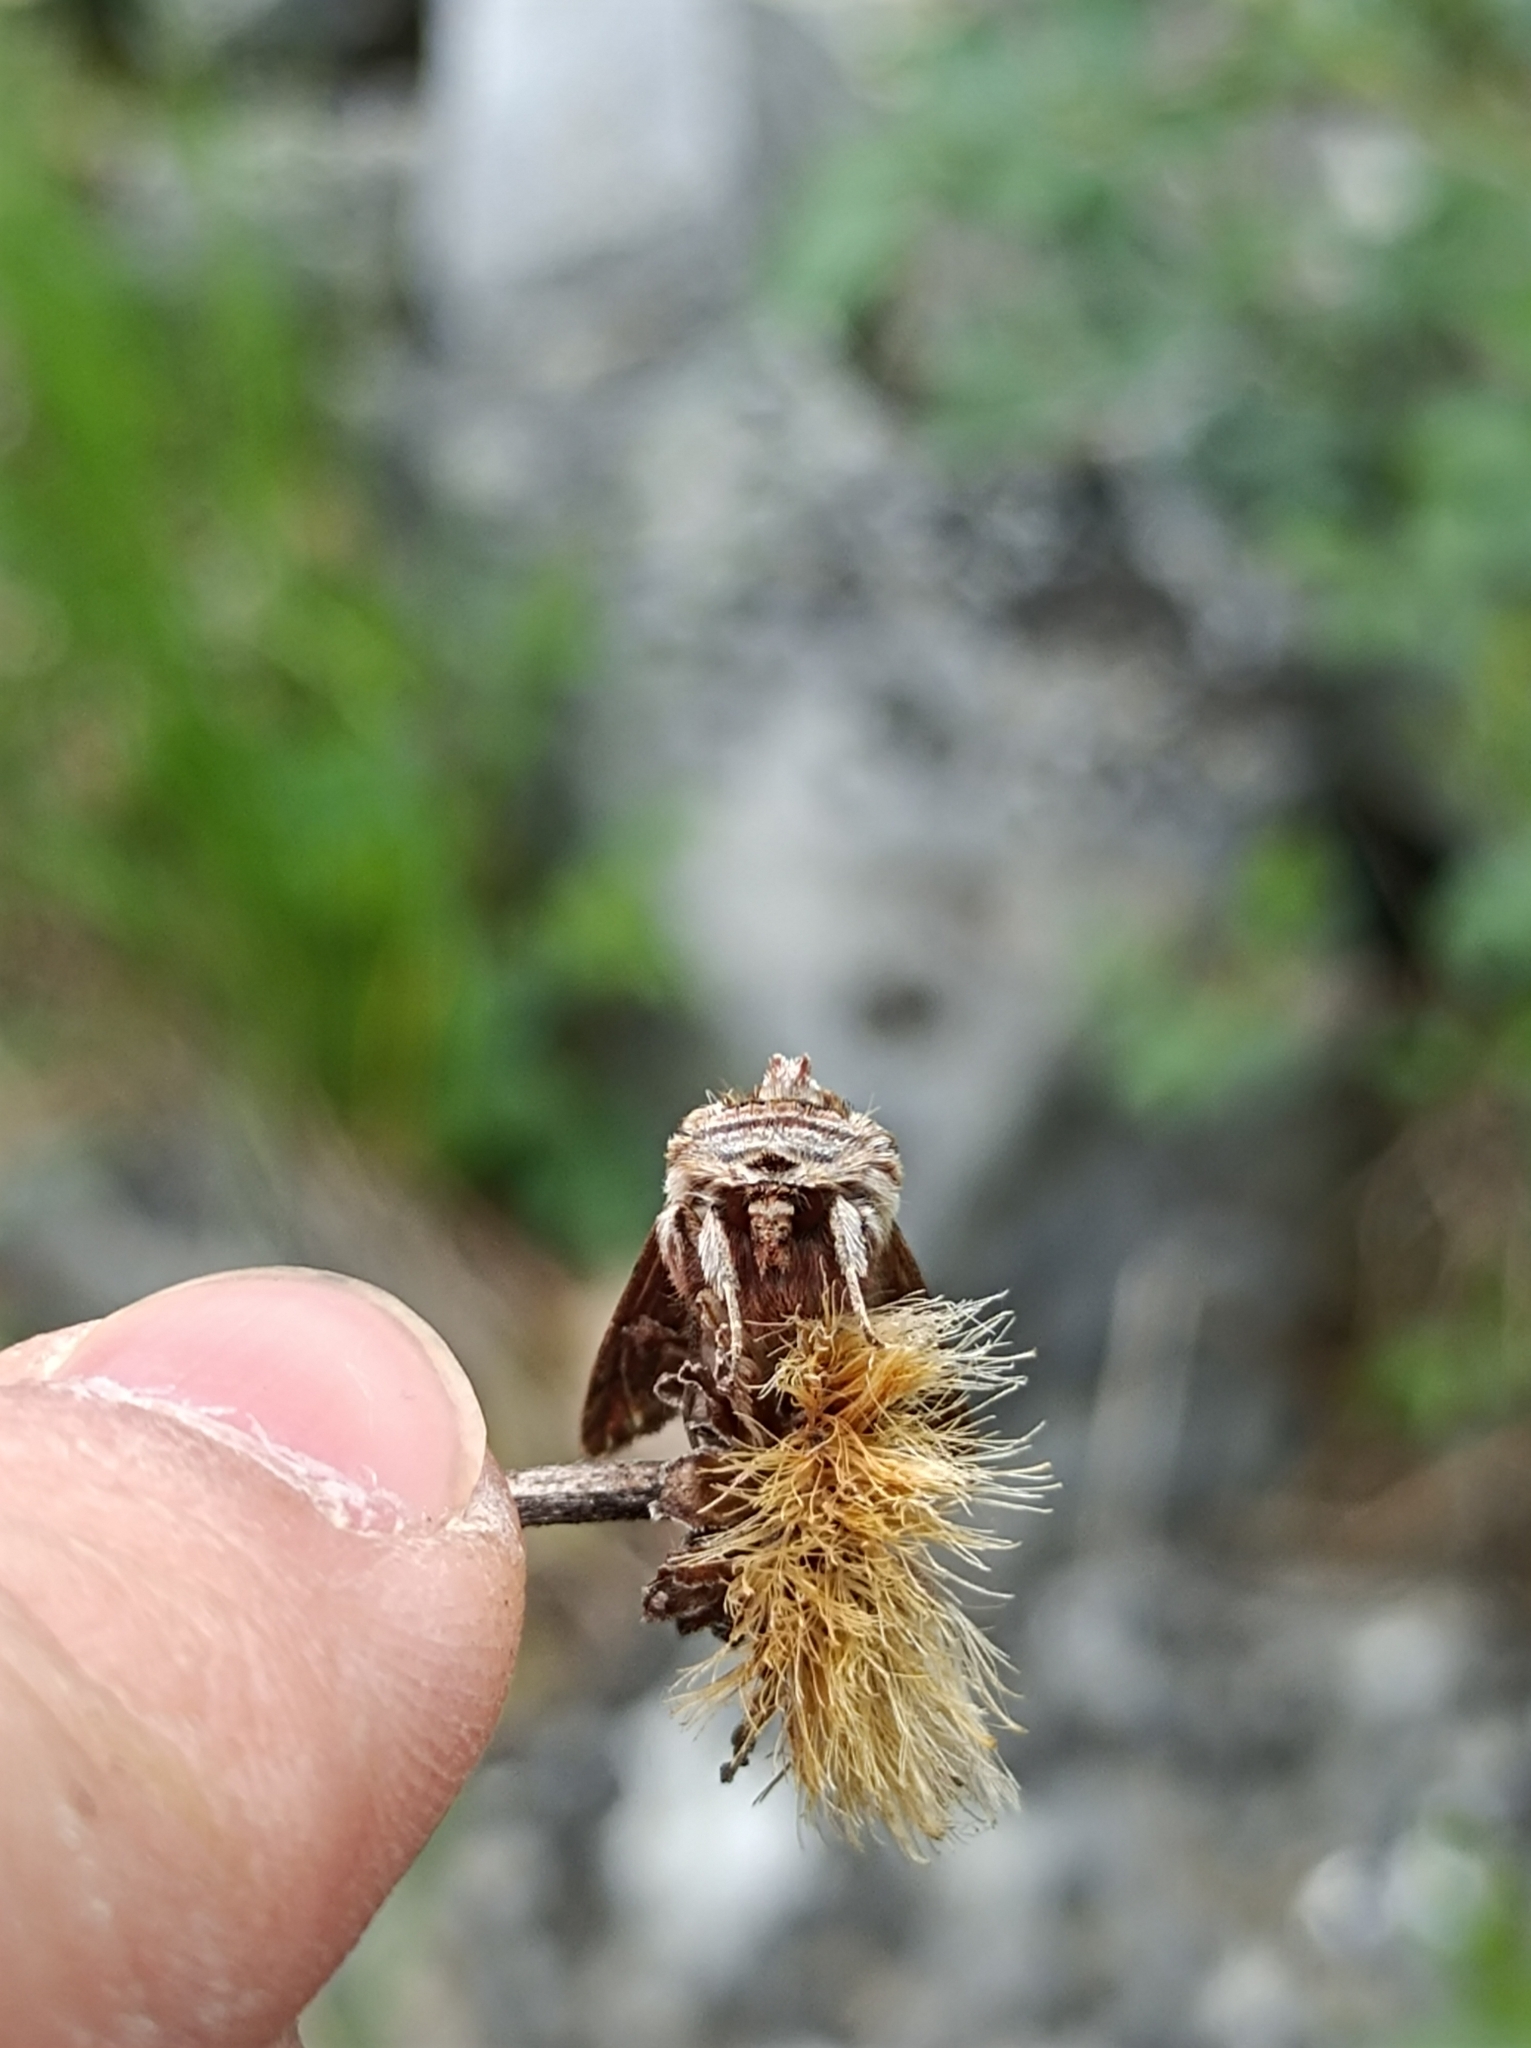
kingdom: Animalia
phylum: Arthropoda
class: Insecta
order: Lepidoptera
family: Noctuidae
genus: Actinotia
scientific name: Actinotia polyodon
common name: Purple cloud
